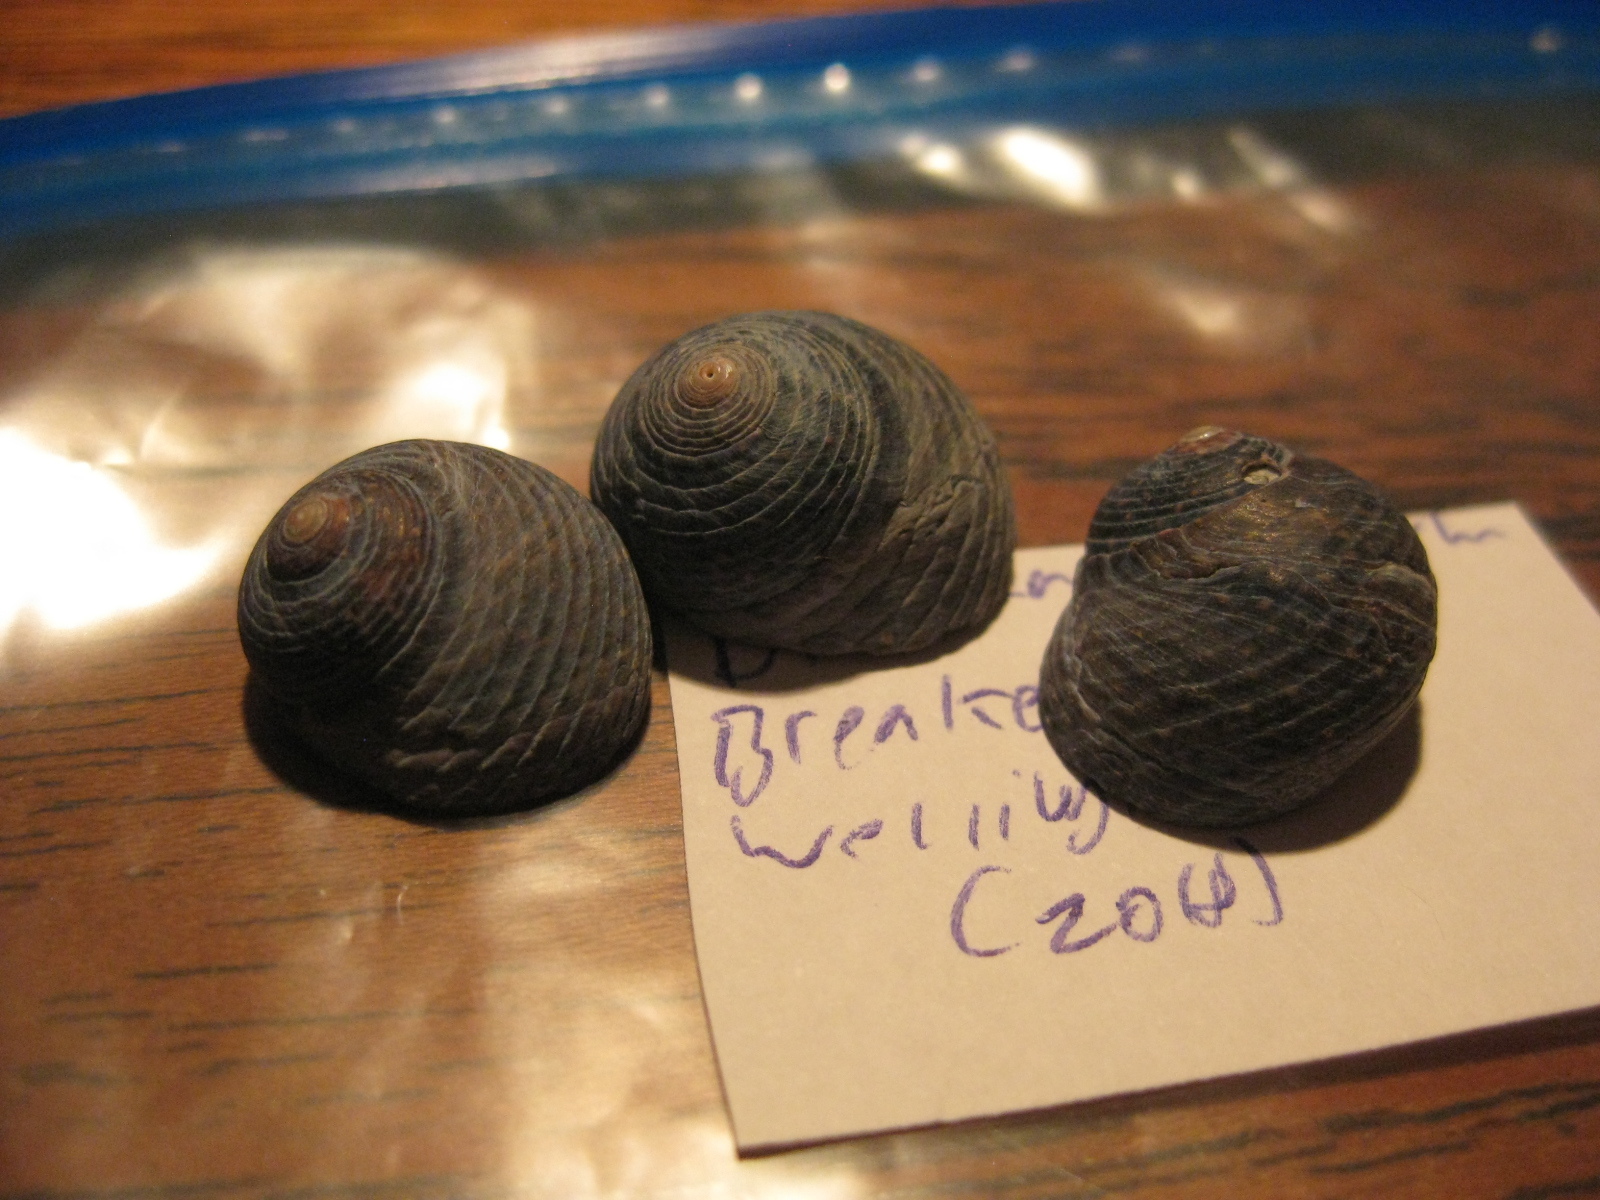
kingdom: Animalia
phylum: Mollusca
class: Gastropoda
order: Trochida
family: Trochidae
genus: Diloma
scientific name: Diloma nigerrimum
